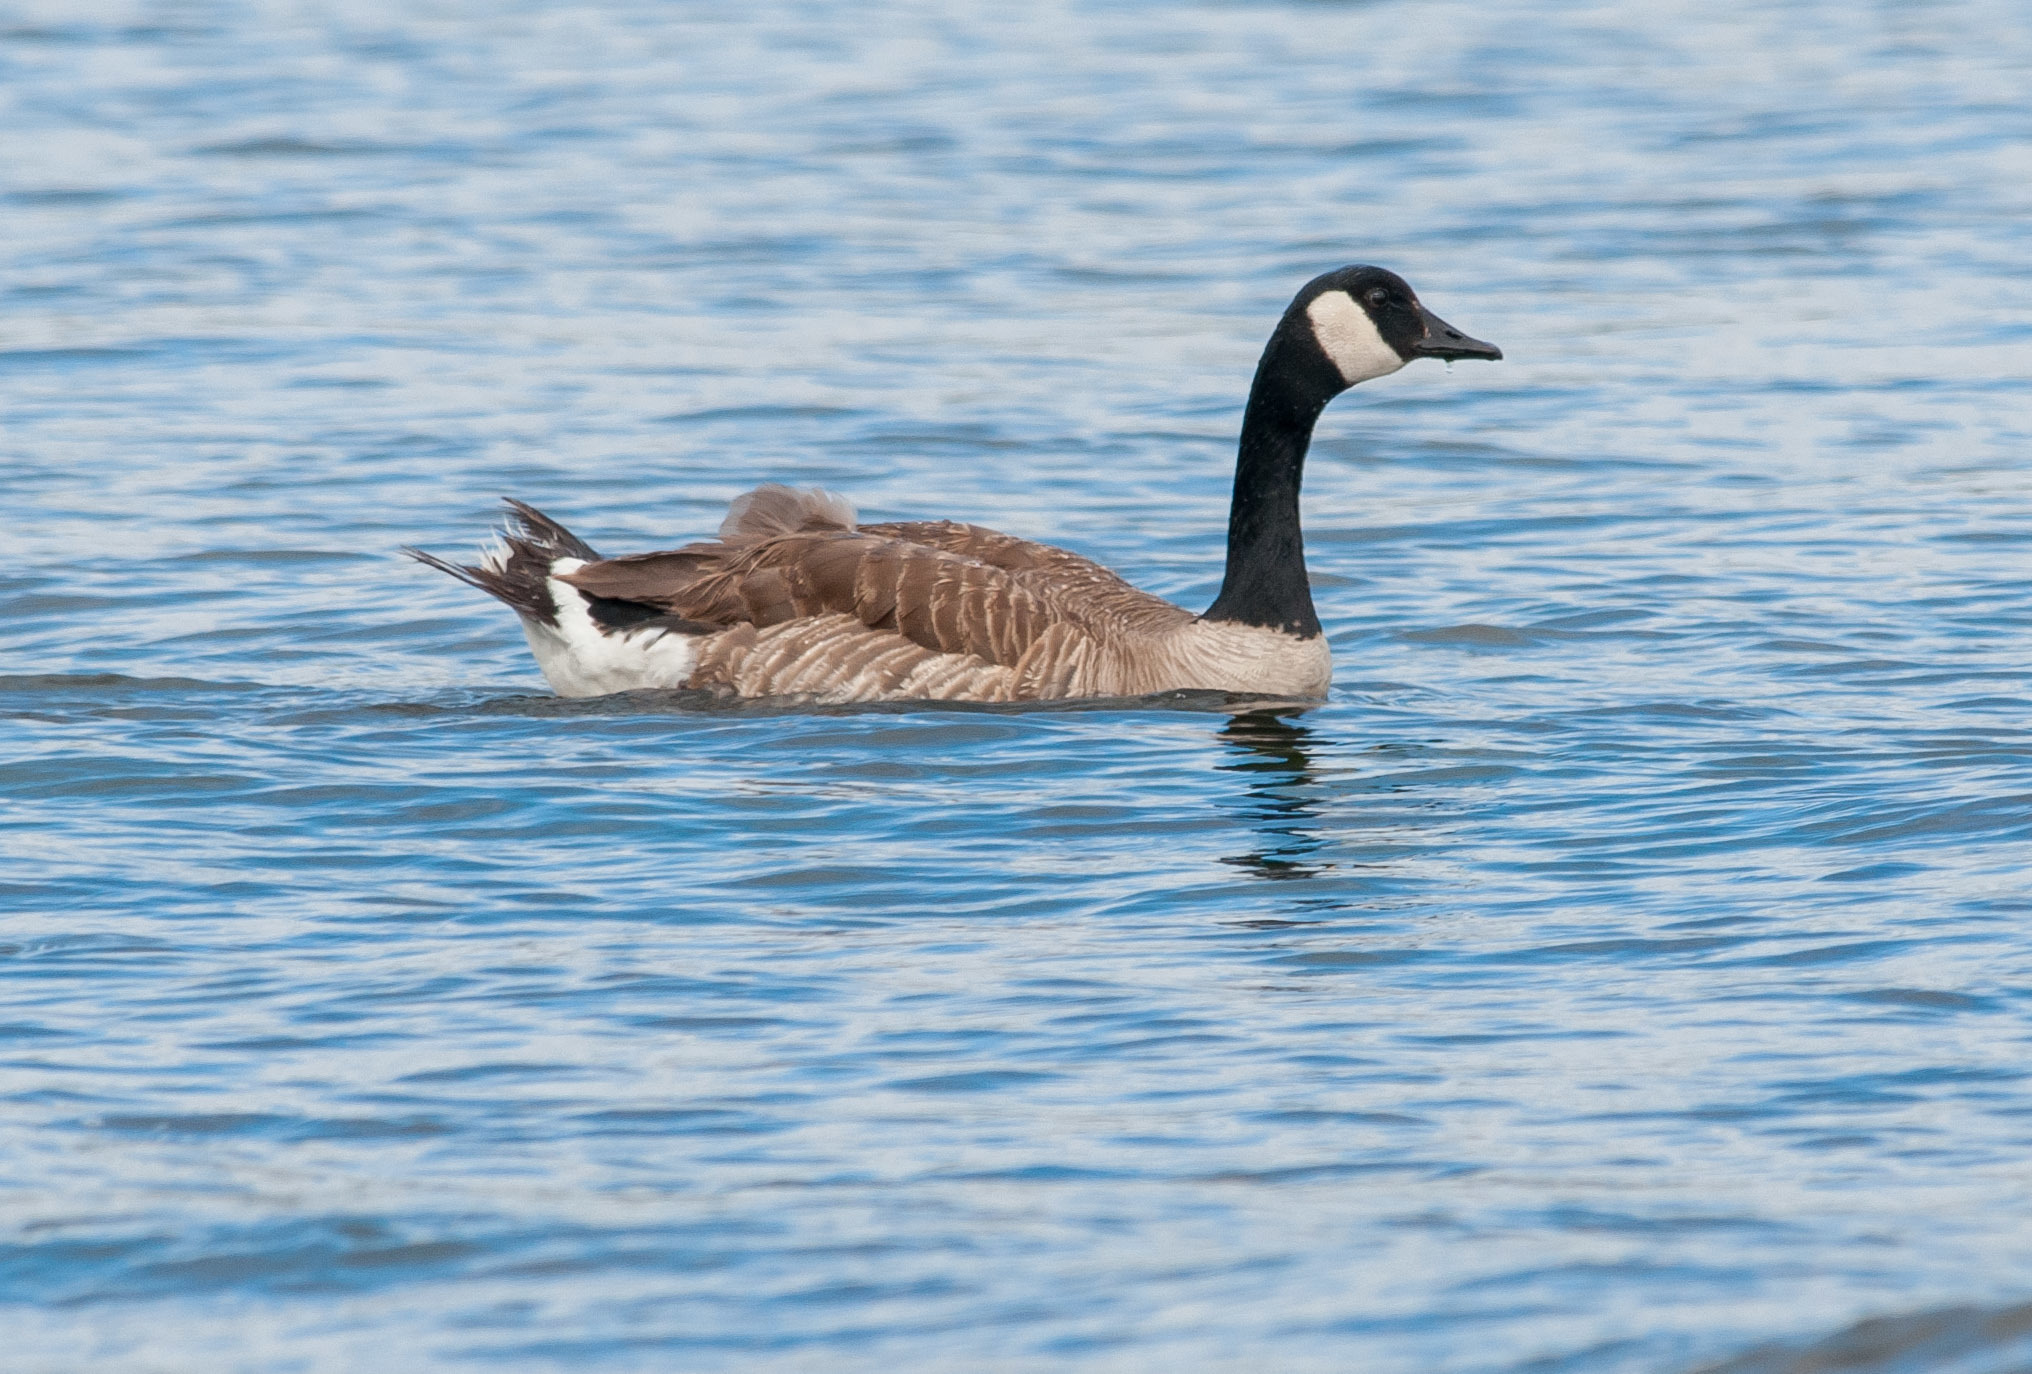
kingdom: Animalia
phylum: Chordata
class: Aves
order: Anseriformes
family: Anatidae
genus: Branta
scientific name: Branta canadensis
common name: Canada goose
